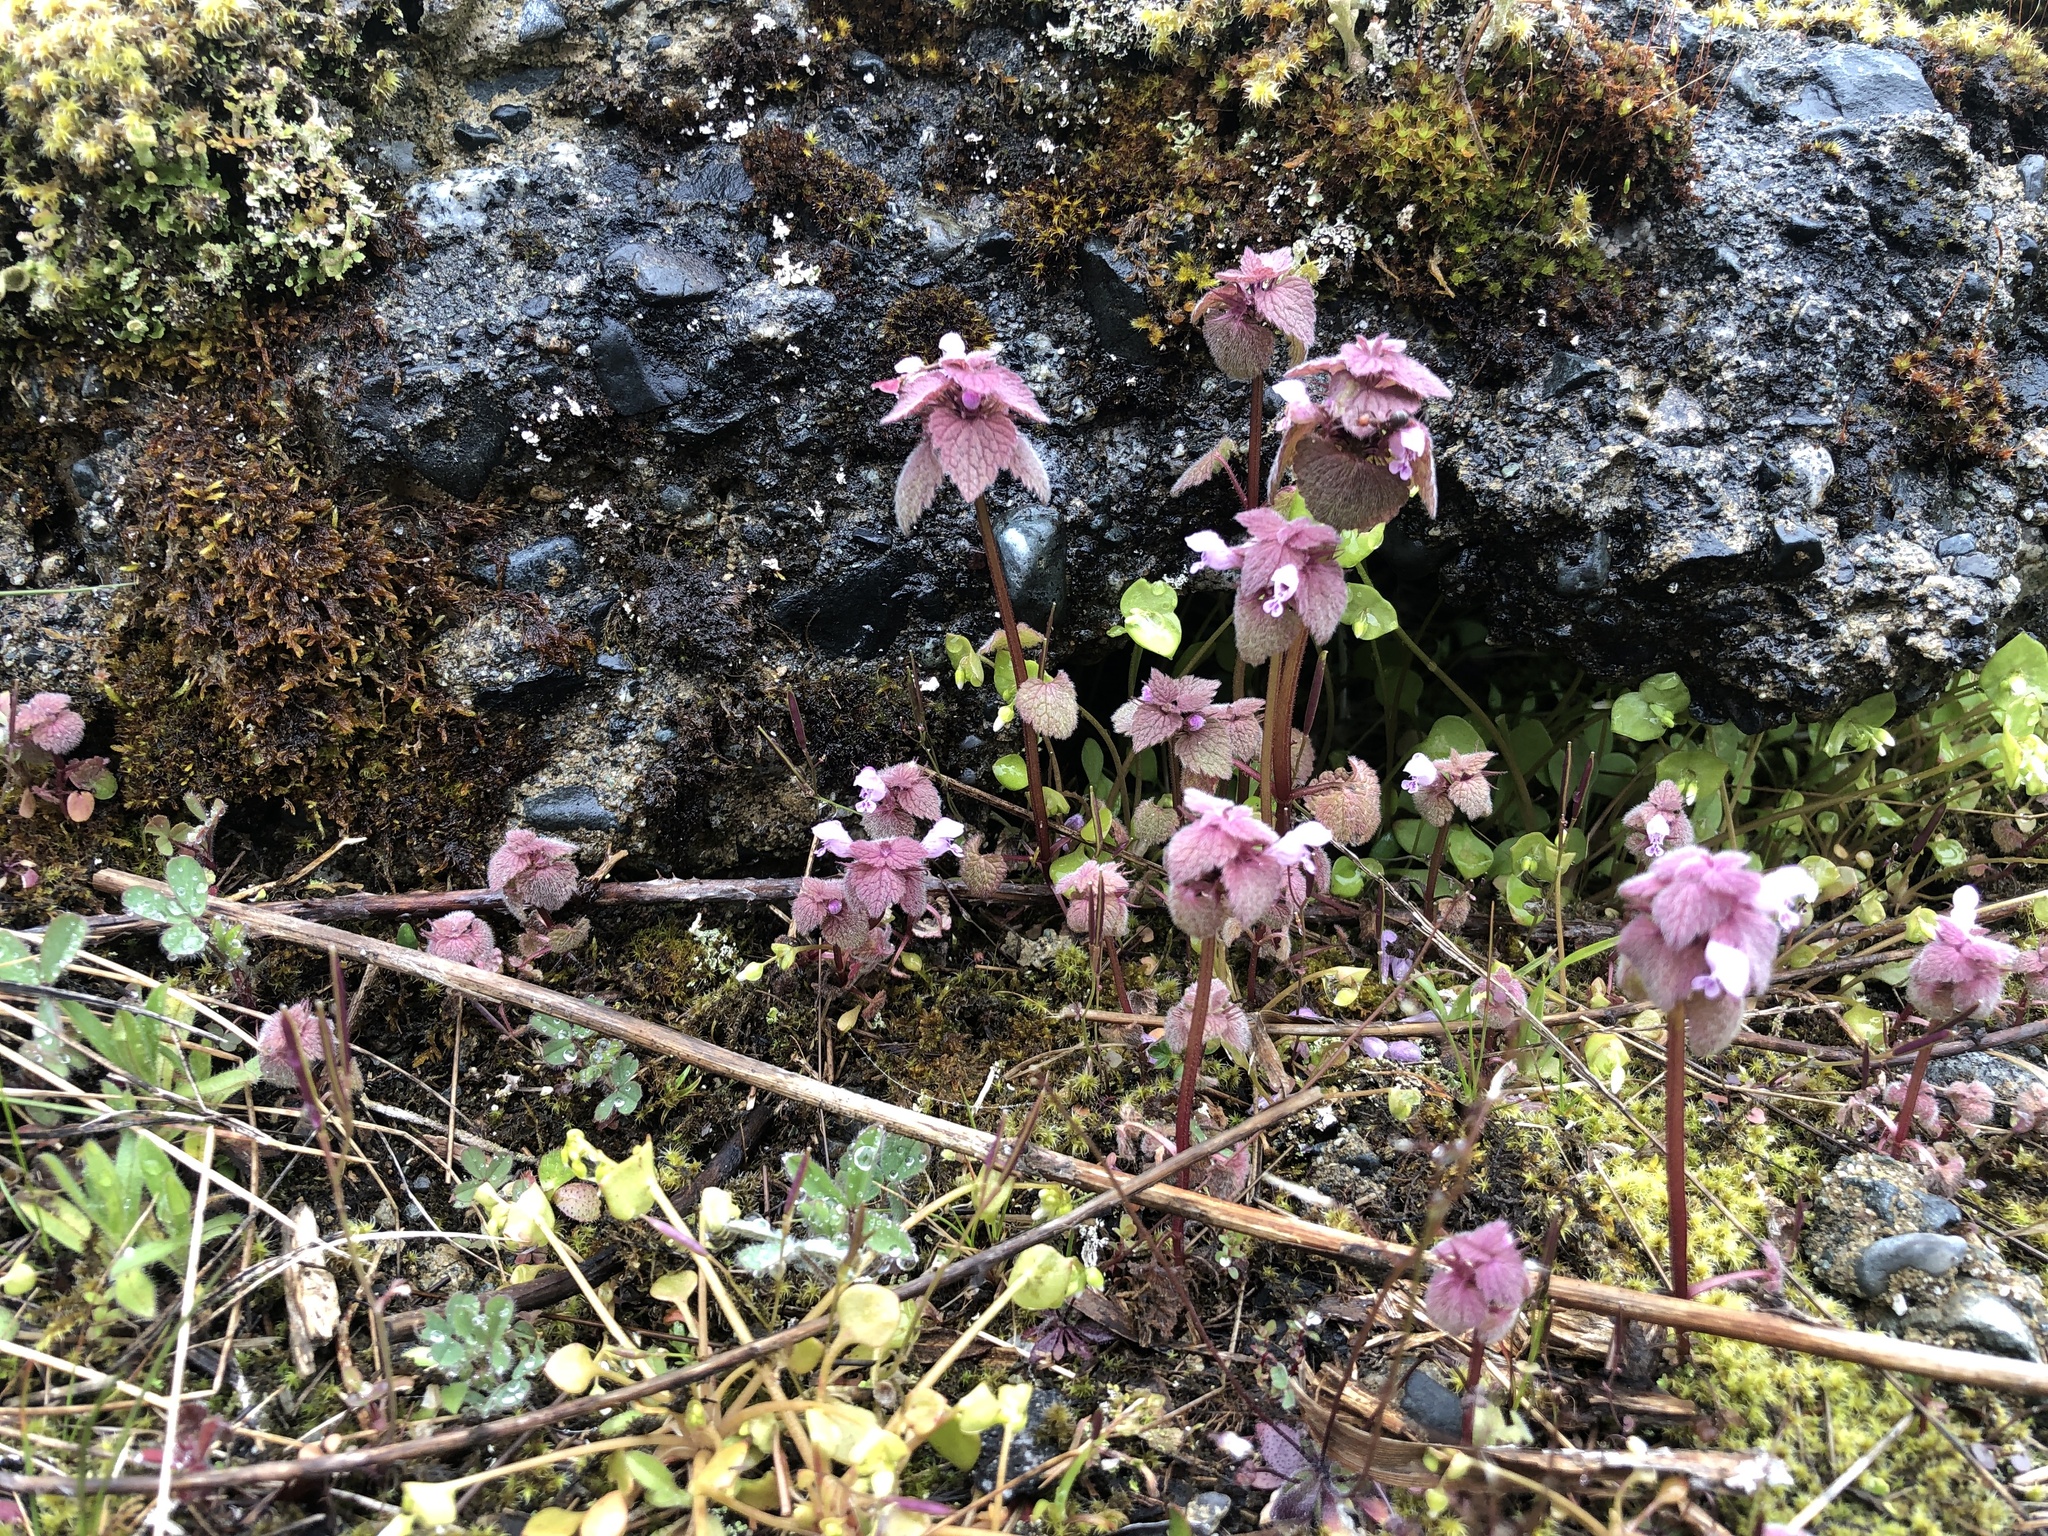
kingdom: Plantae
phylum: Tracheophyta
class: Magnoliopsida
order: Lamiales
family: Lamiaceae
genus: Lamium
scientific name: Lamium purpureum
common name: Red dead-nettle
